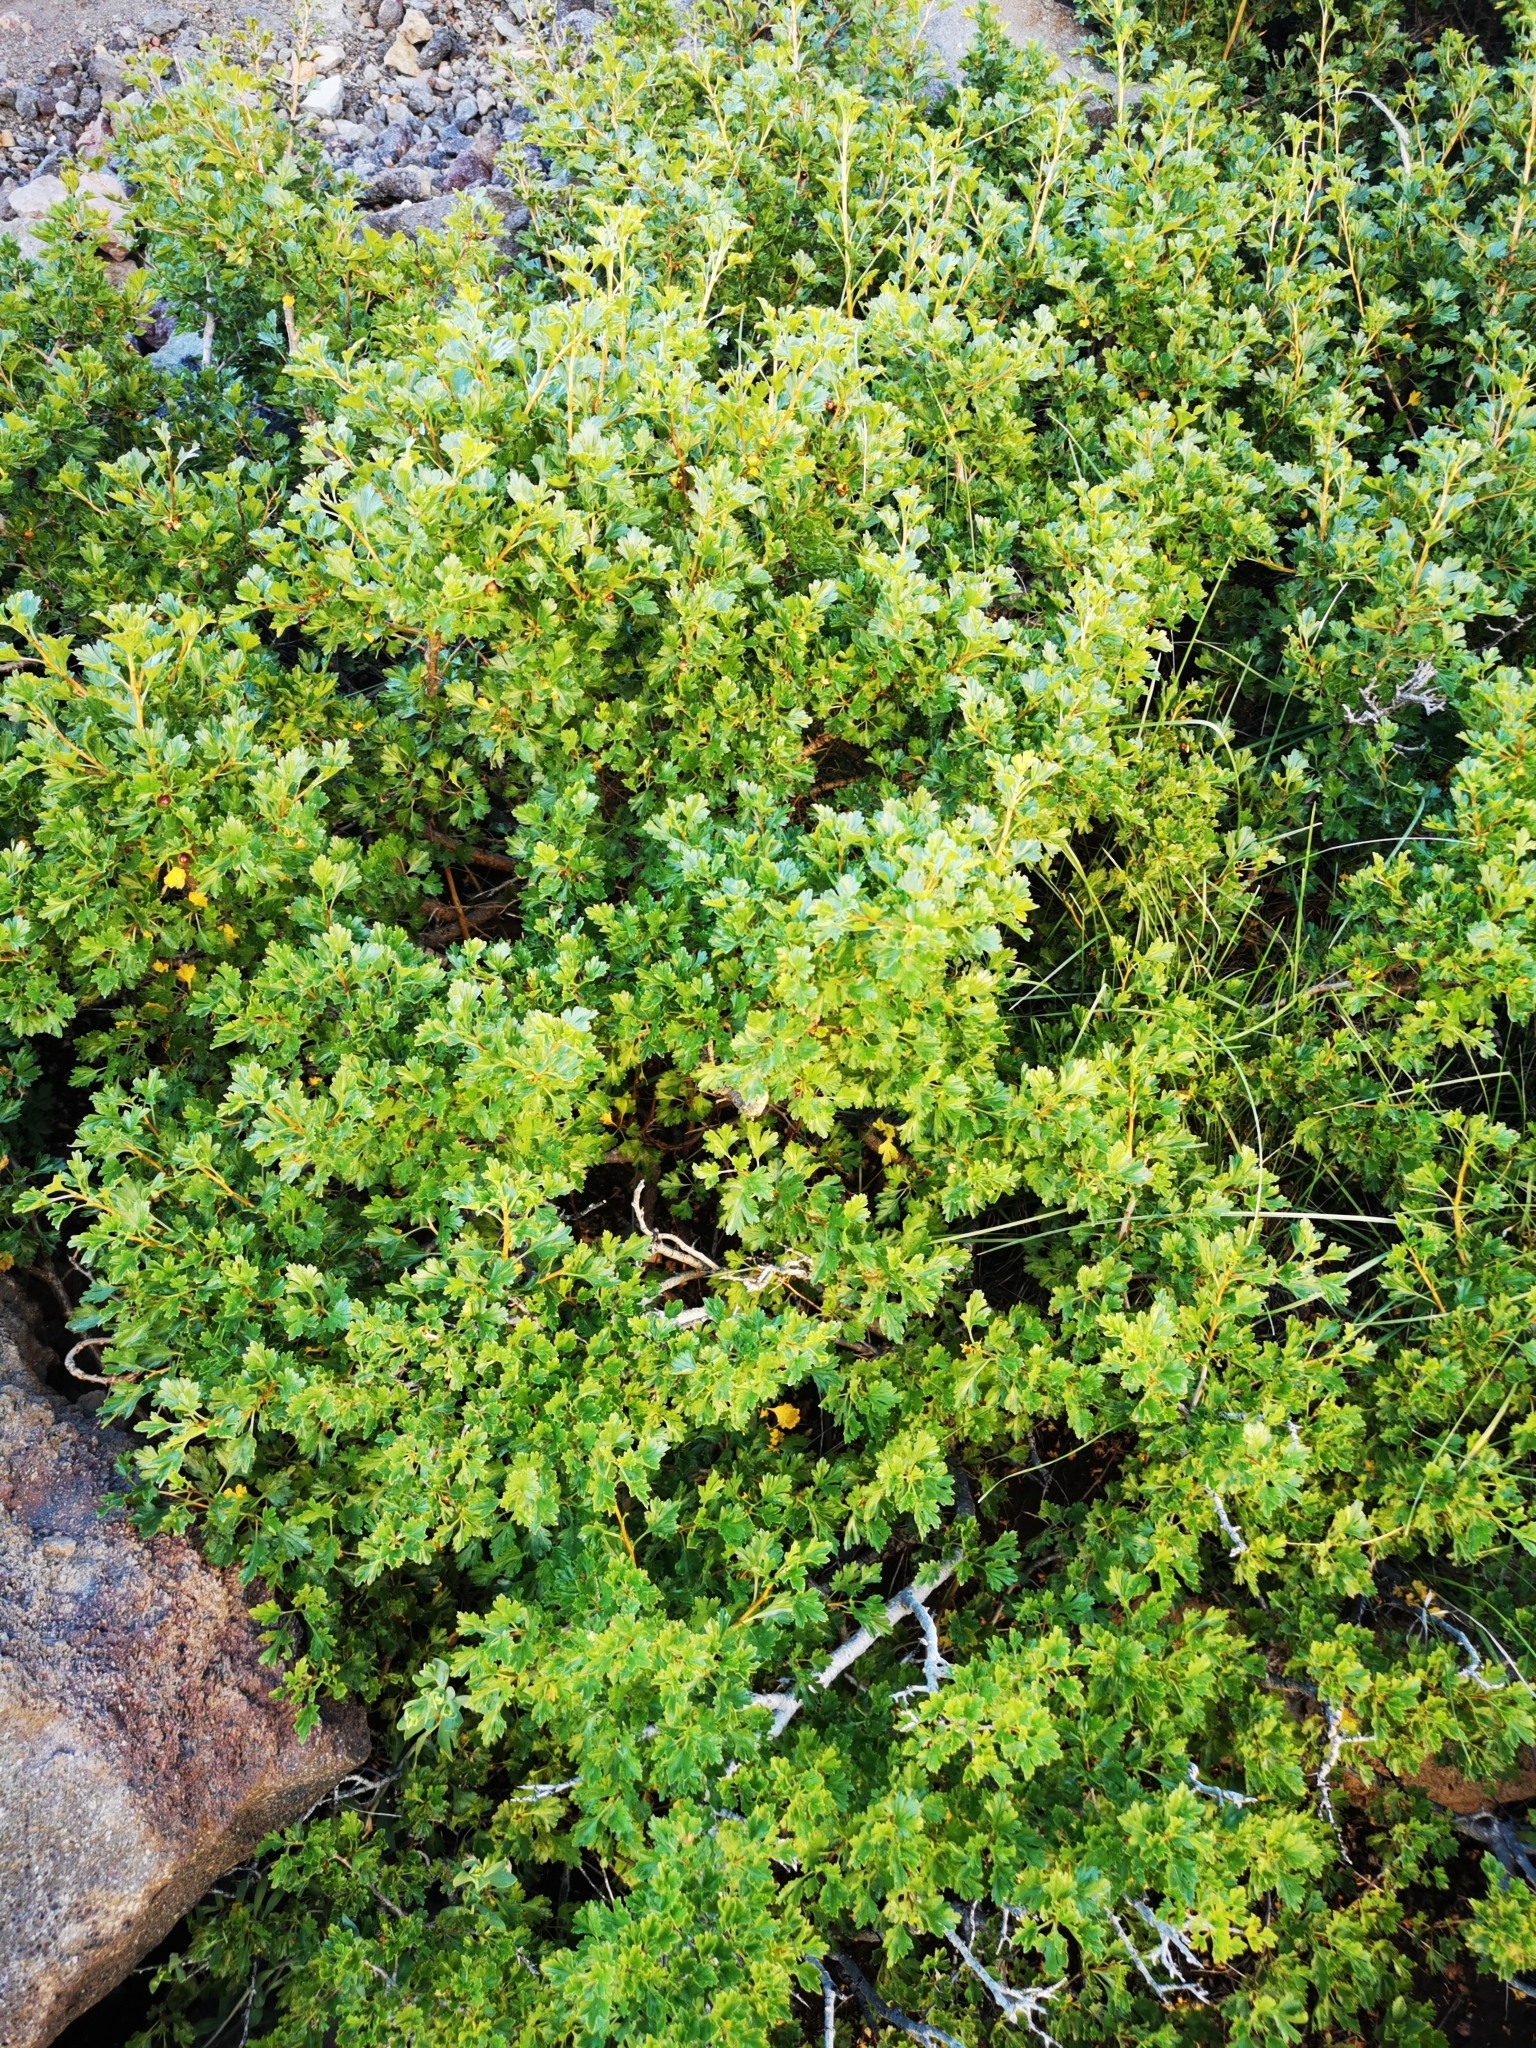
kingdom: Plantae
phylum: Tracheophyta
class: Magnoliopsida
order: Saxifragales
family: Grossulariaceae
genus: Ribes
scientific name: Ribes cucullatum
